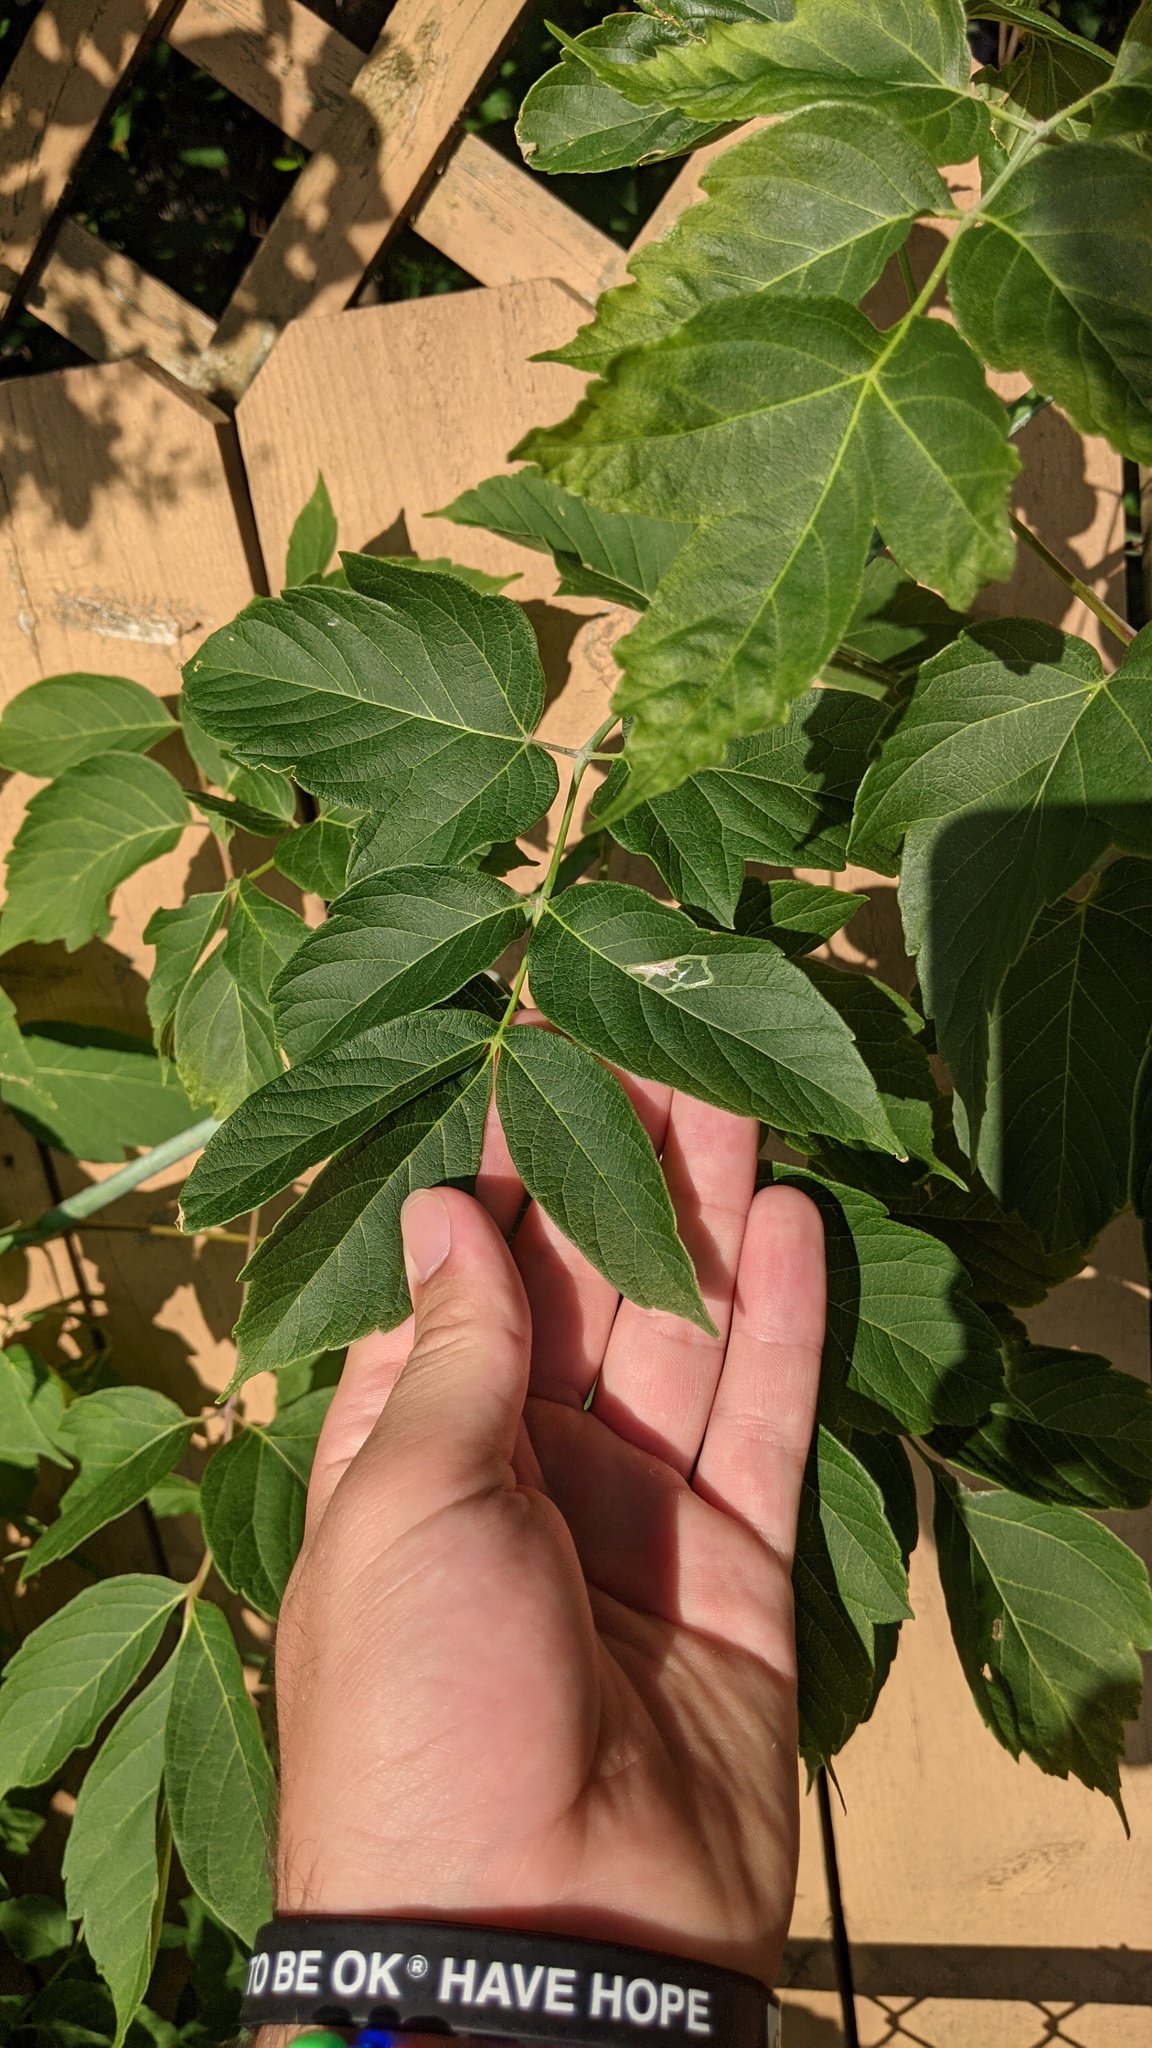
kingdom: Plantae
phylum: Tracheophyta
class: Magnoliopsida
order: Sapindales
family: Sapindaceae
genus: Acer
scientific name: Acer negundo
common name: Ashleaf maple
